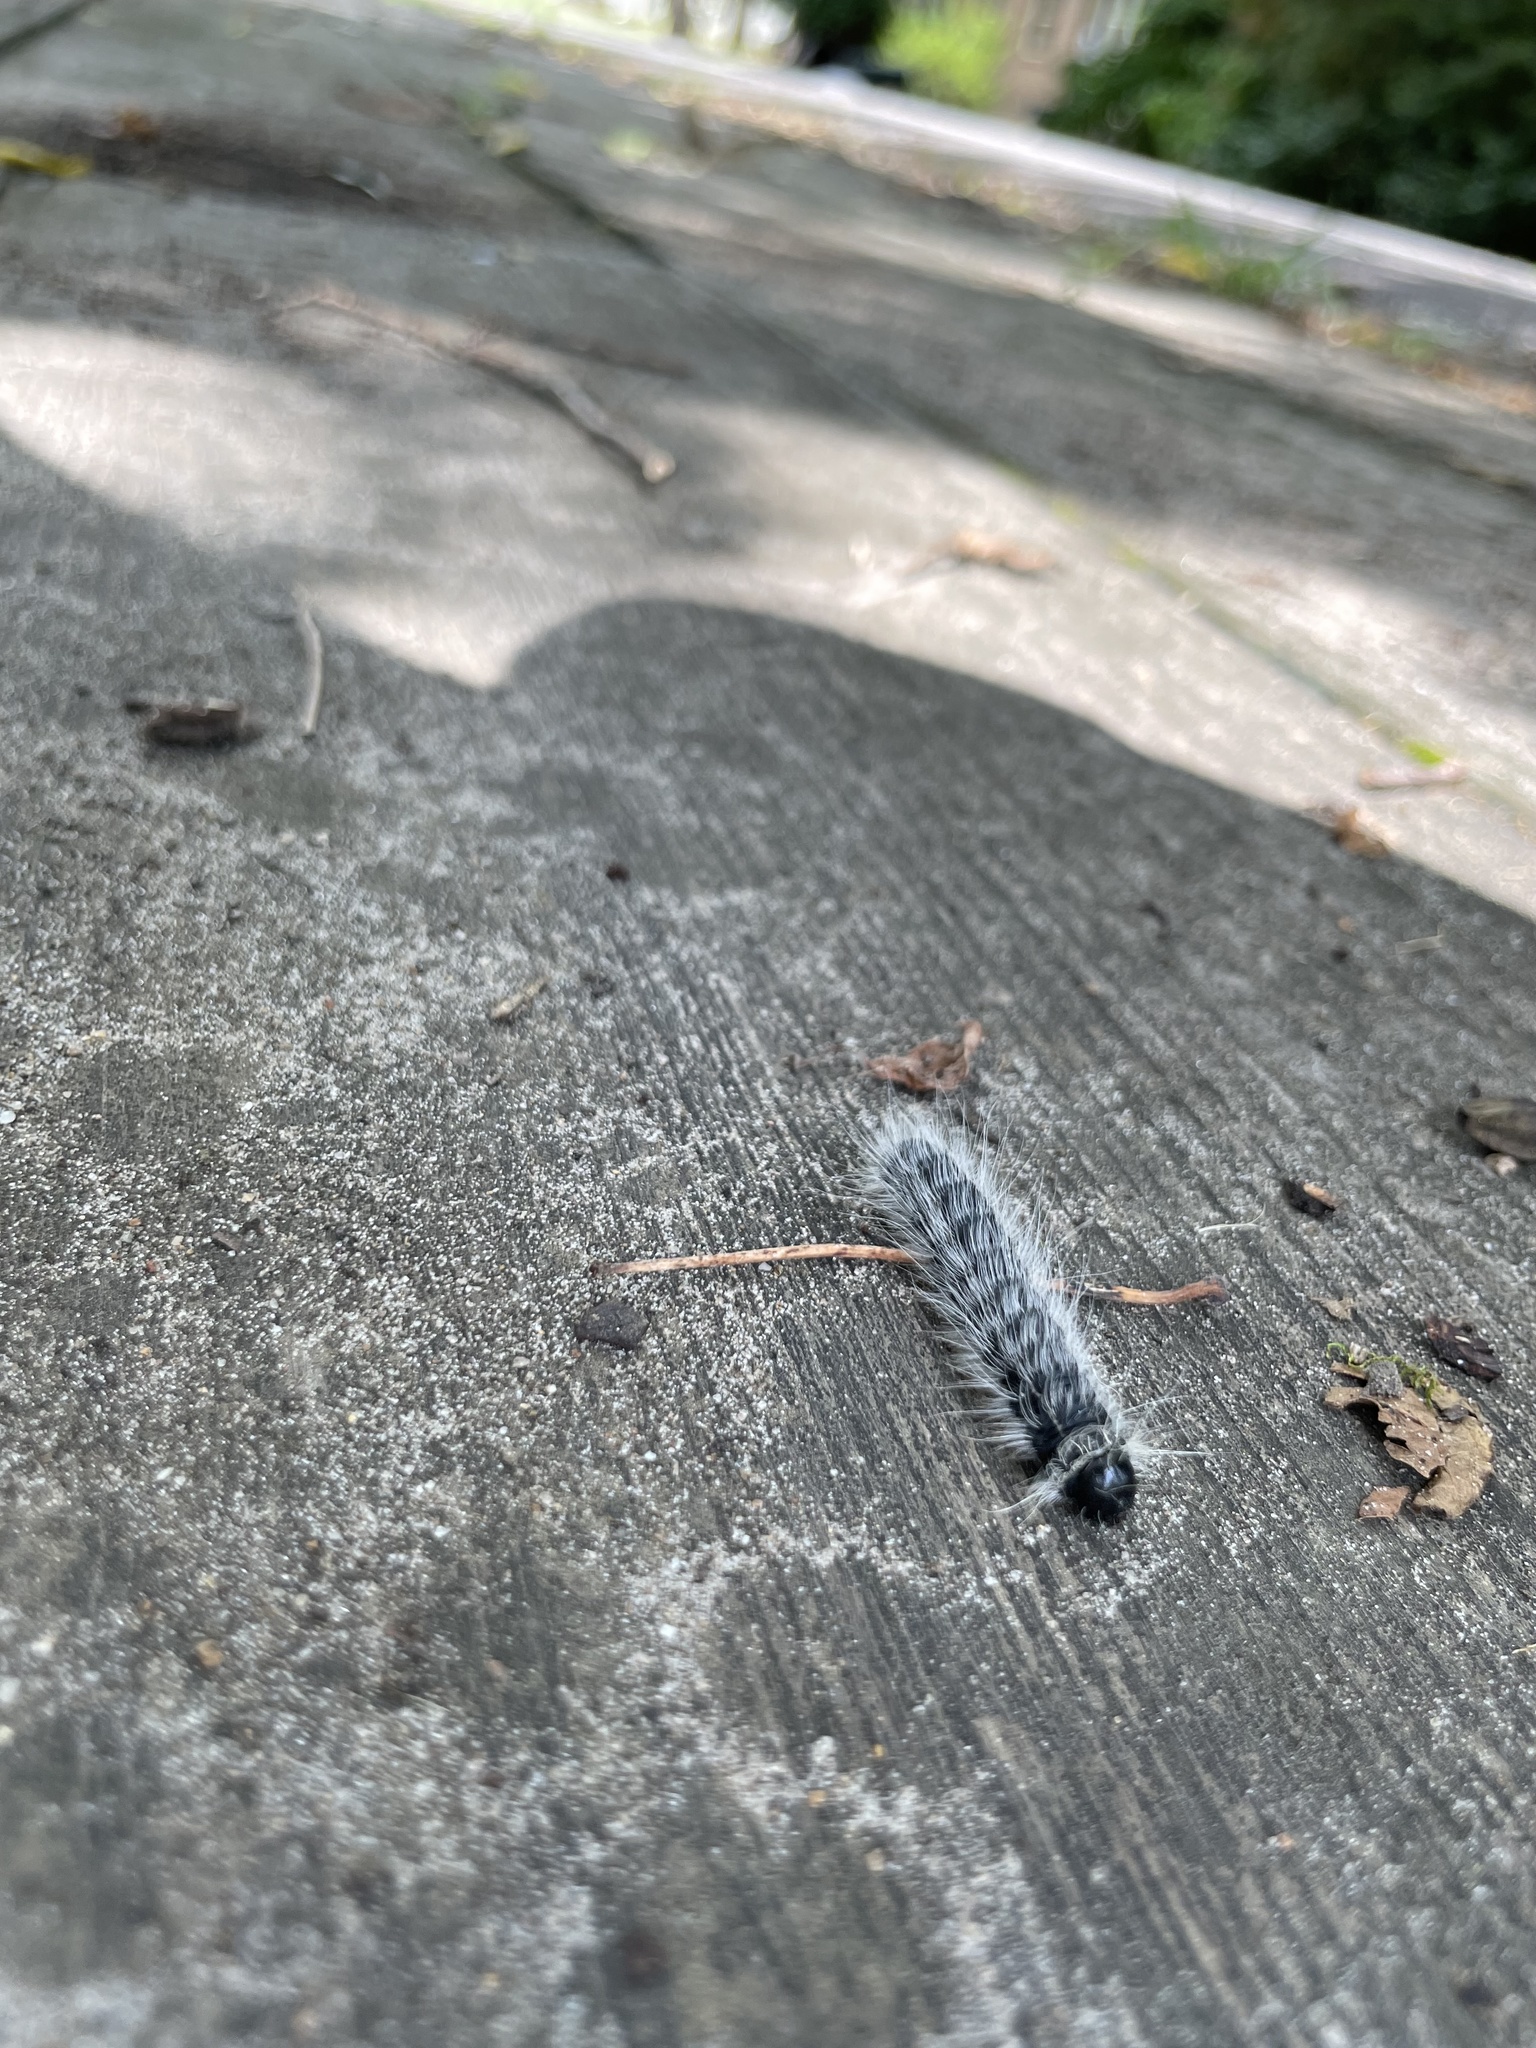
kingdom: Animalia
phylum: Arthropoda
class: Insecta
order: Lepidoptera
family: Notodontidae
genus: Datana
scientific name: Datana integerrima
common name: Walnut caterpillar
